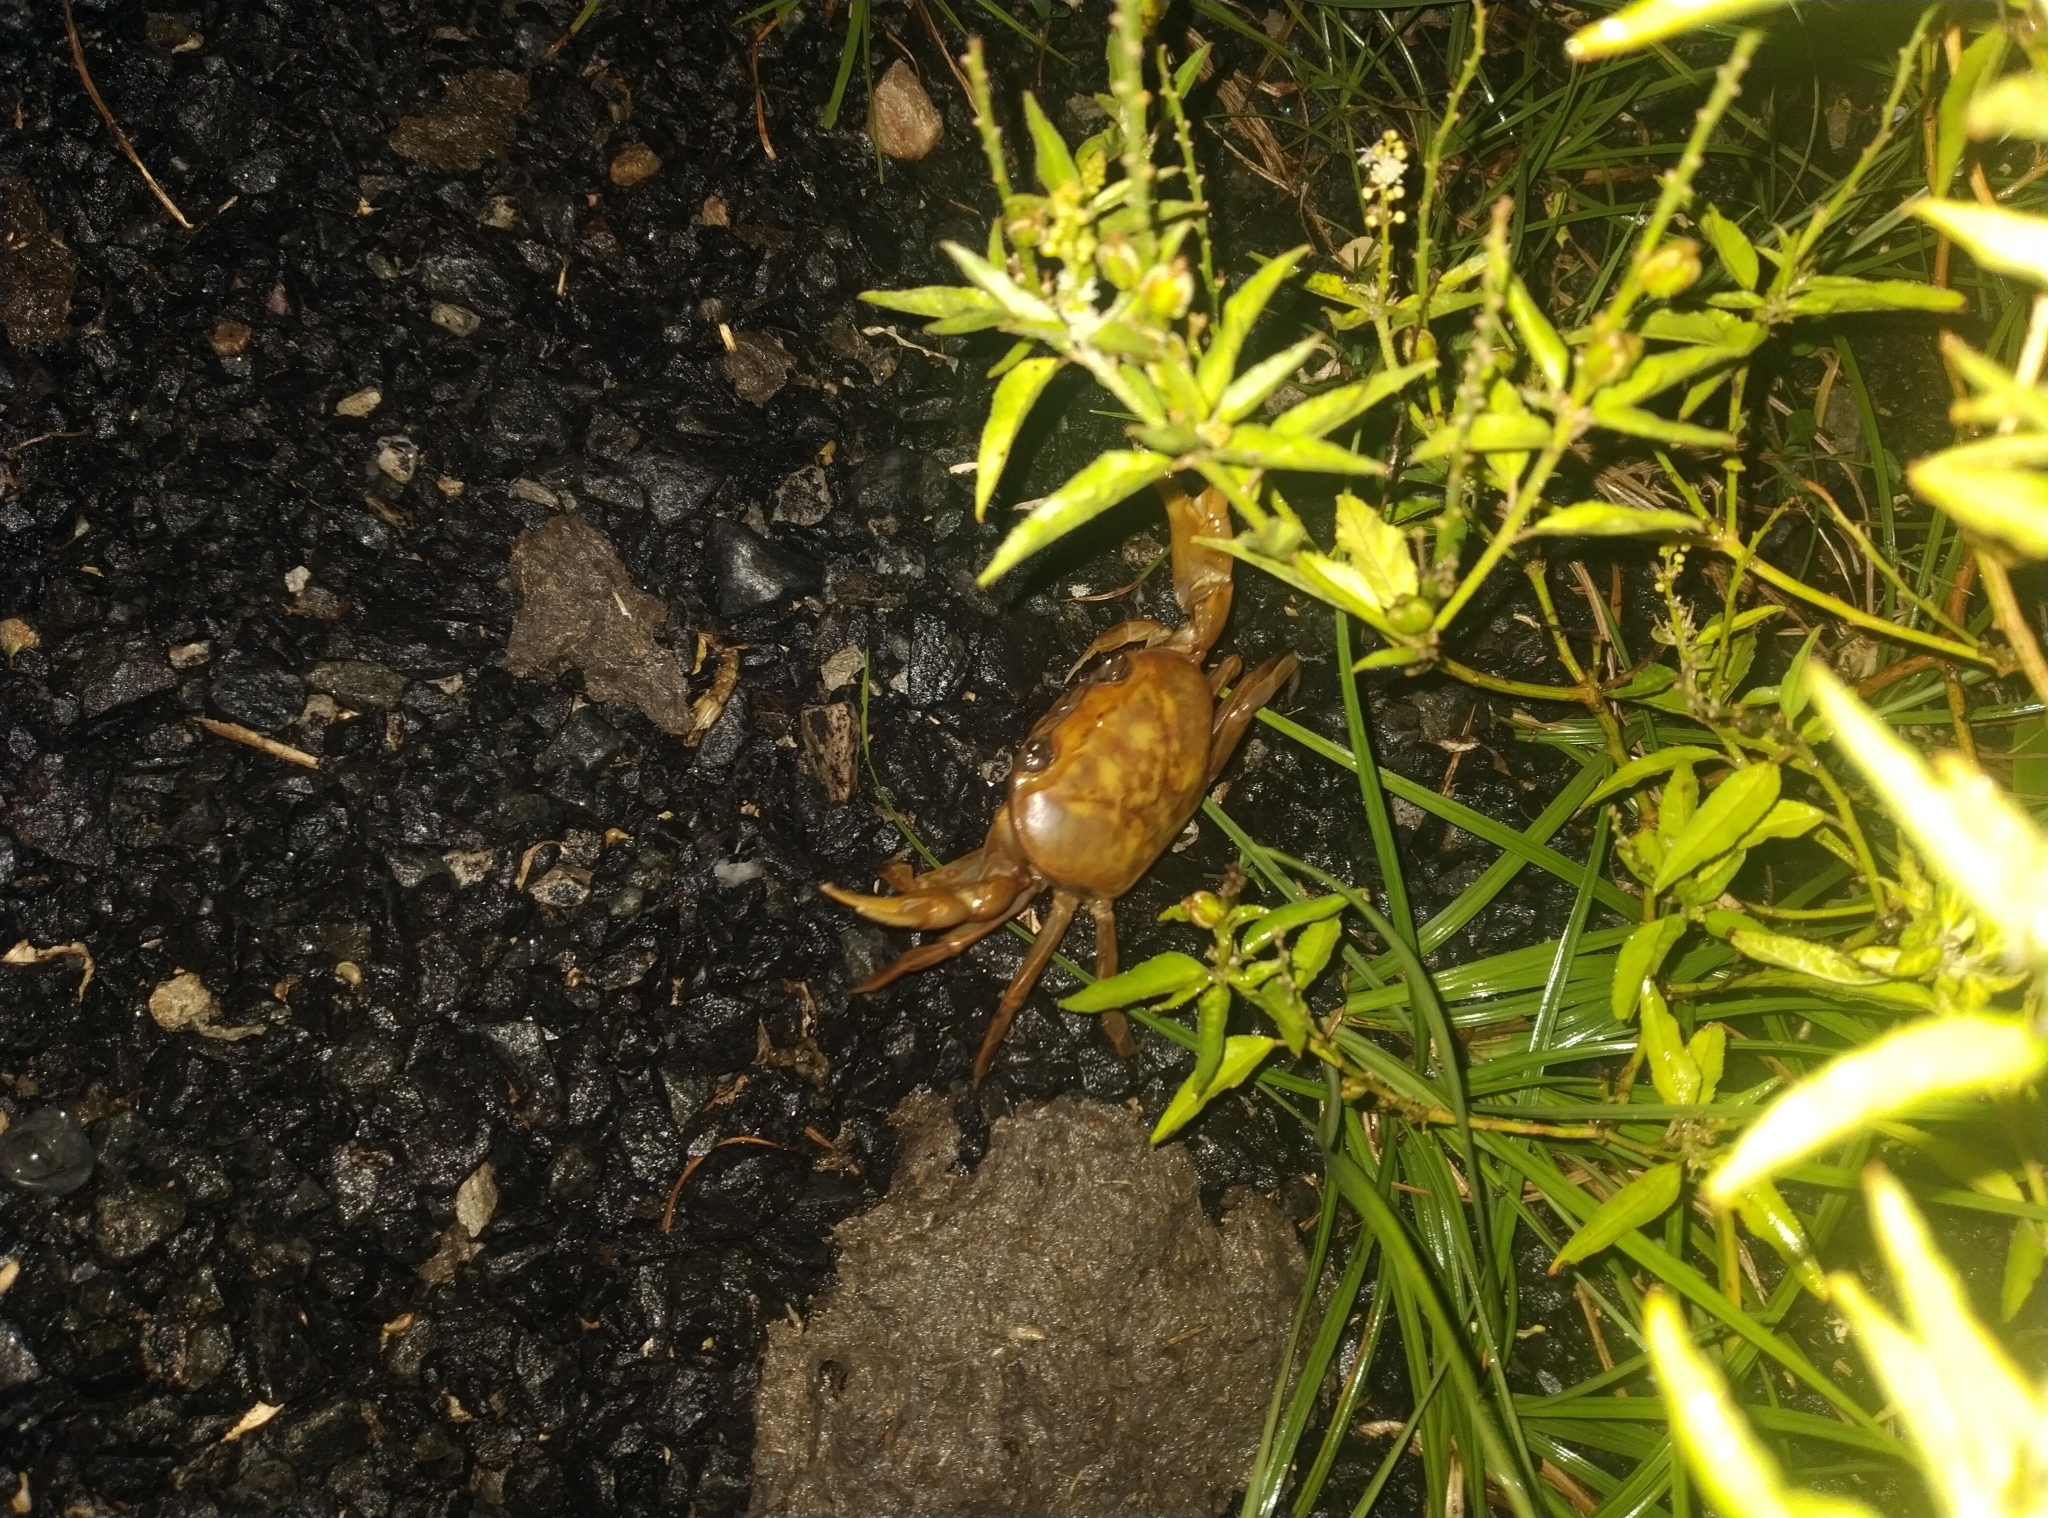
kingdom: Animalia
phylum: Arthropoda
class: Malacostraca
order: Decapoda
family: Gecarcinucidae
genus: Oziotelphusa
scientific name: Oziotelphusa aurantia
